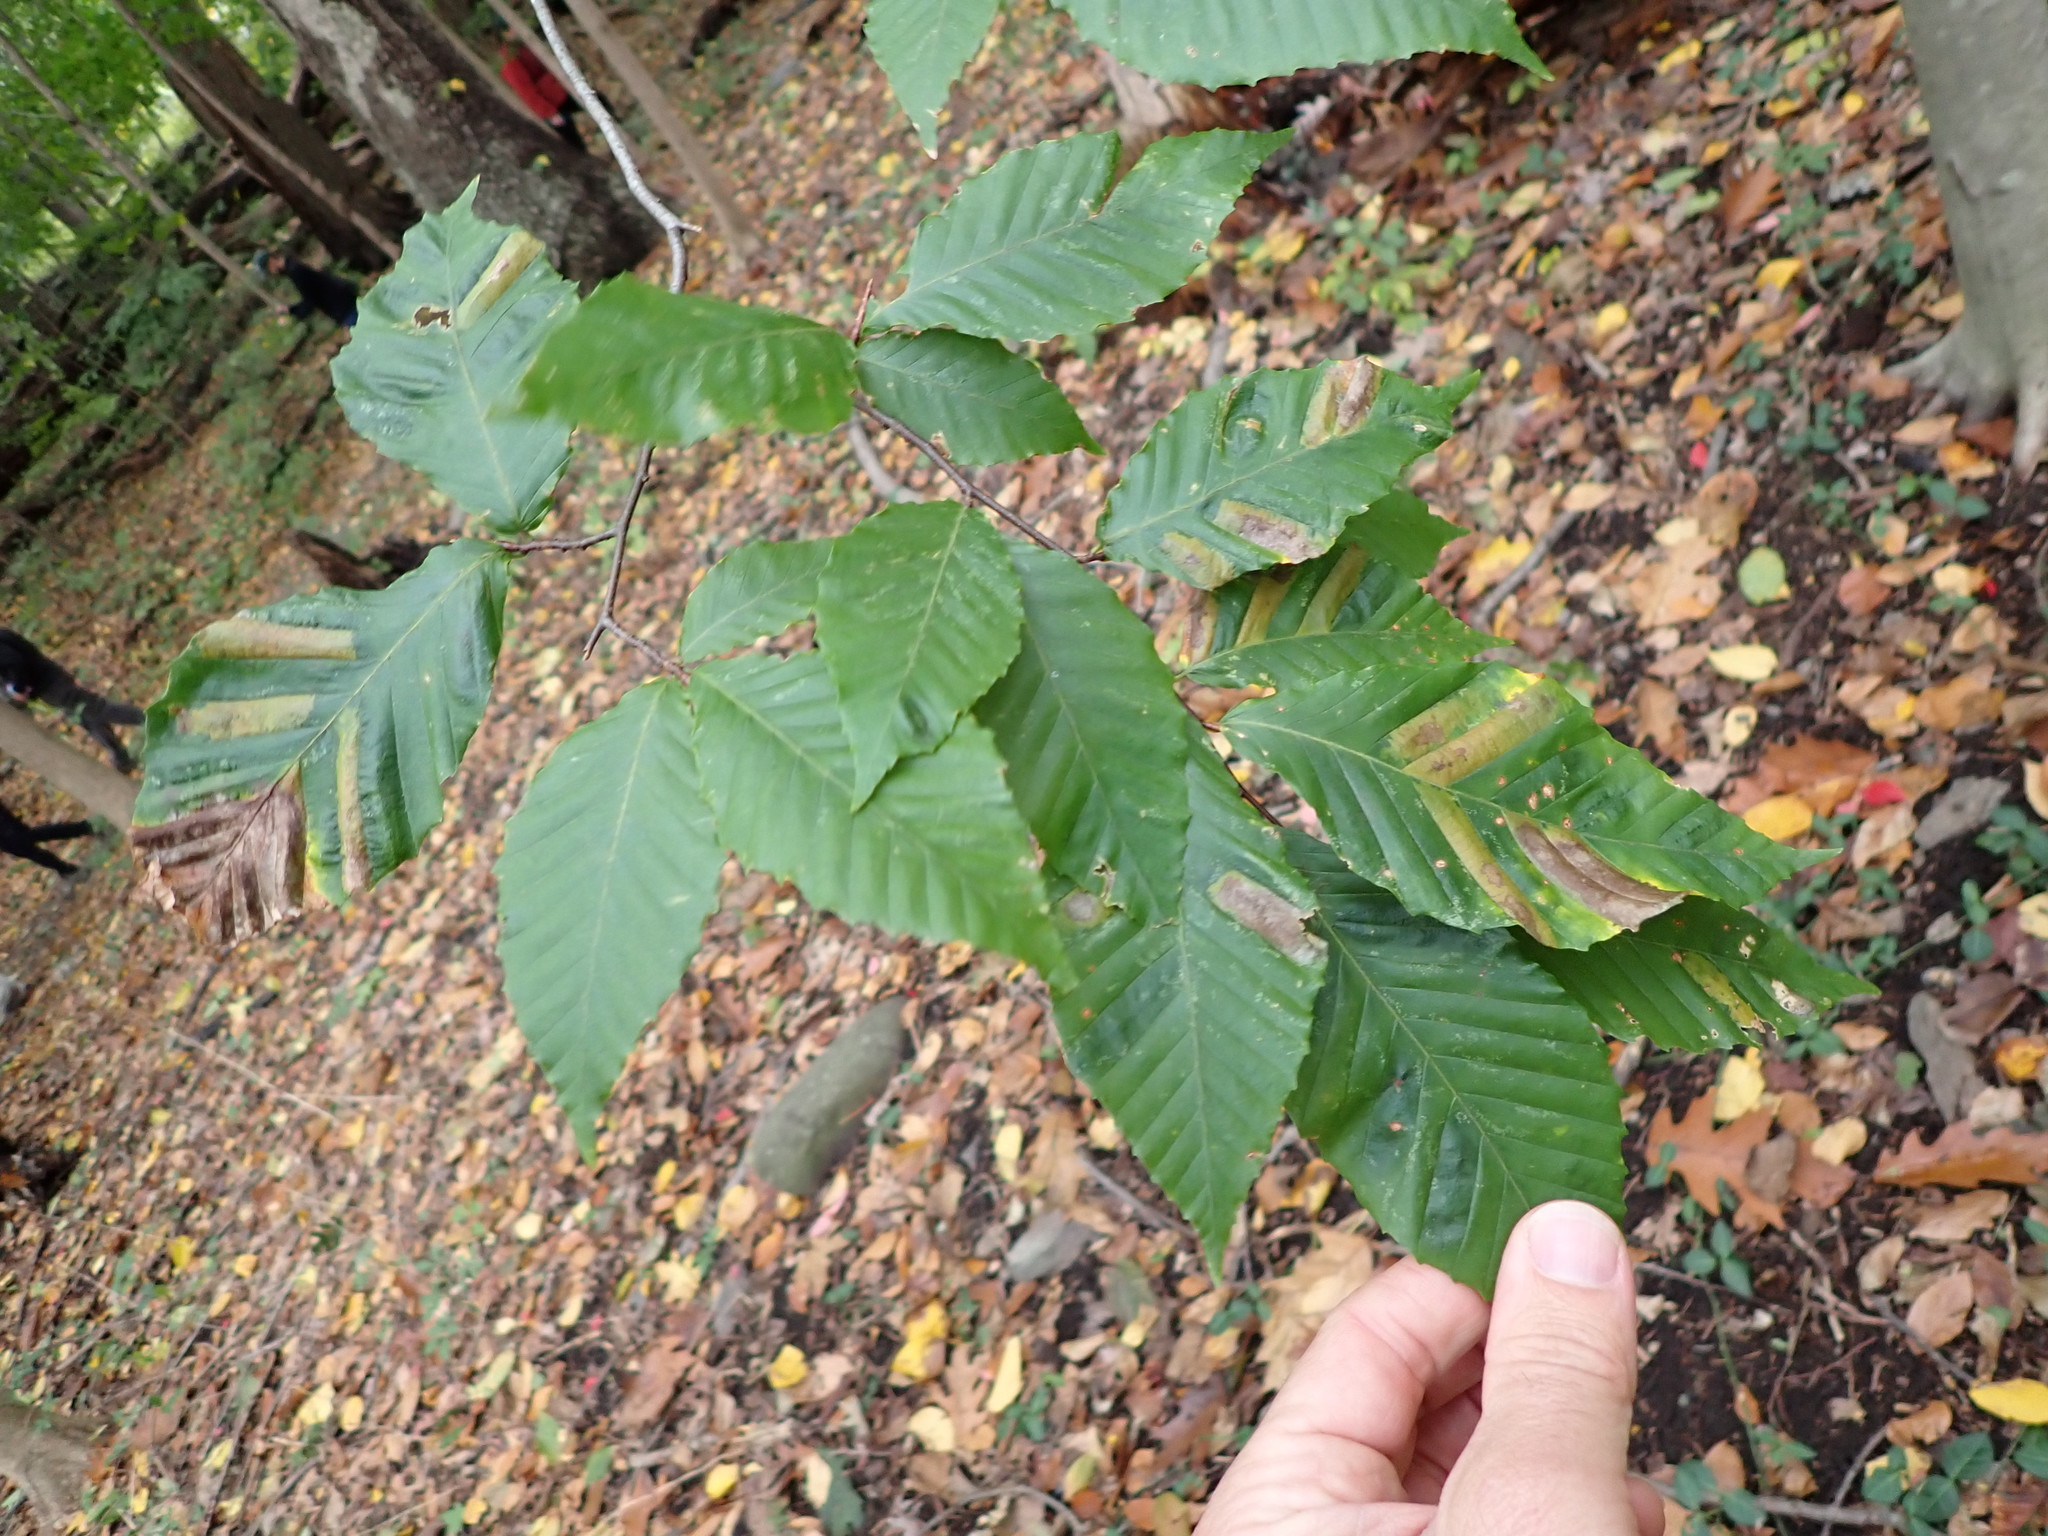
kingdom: Animalia
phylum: Nematoda
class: Chromadorea
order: Rhabditida
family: Anguinidae
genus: Litylenchus
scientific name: Litylenchus crenatae
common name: Beech leaf disease
